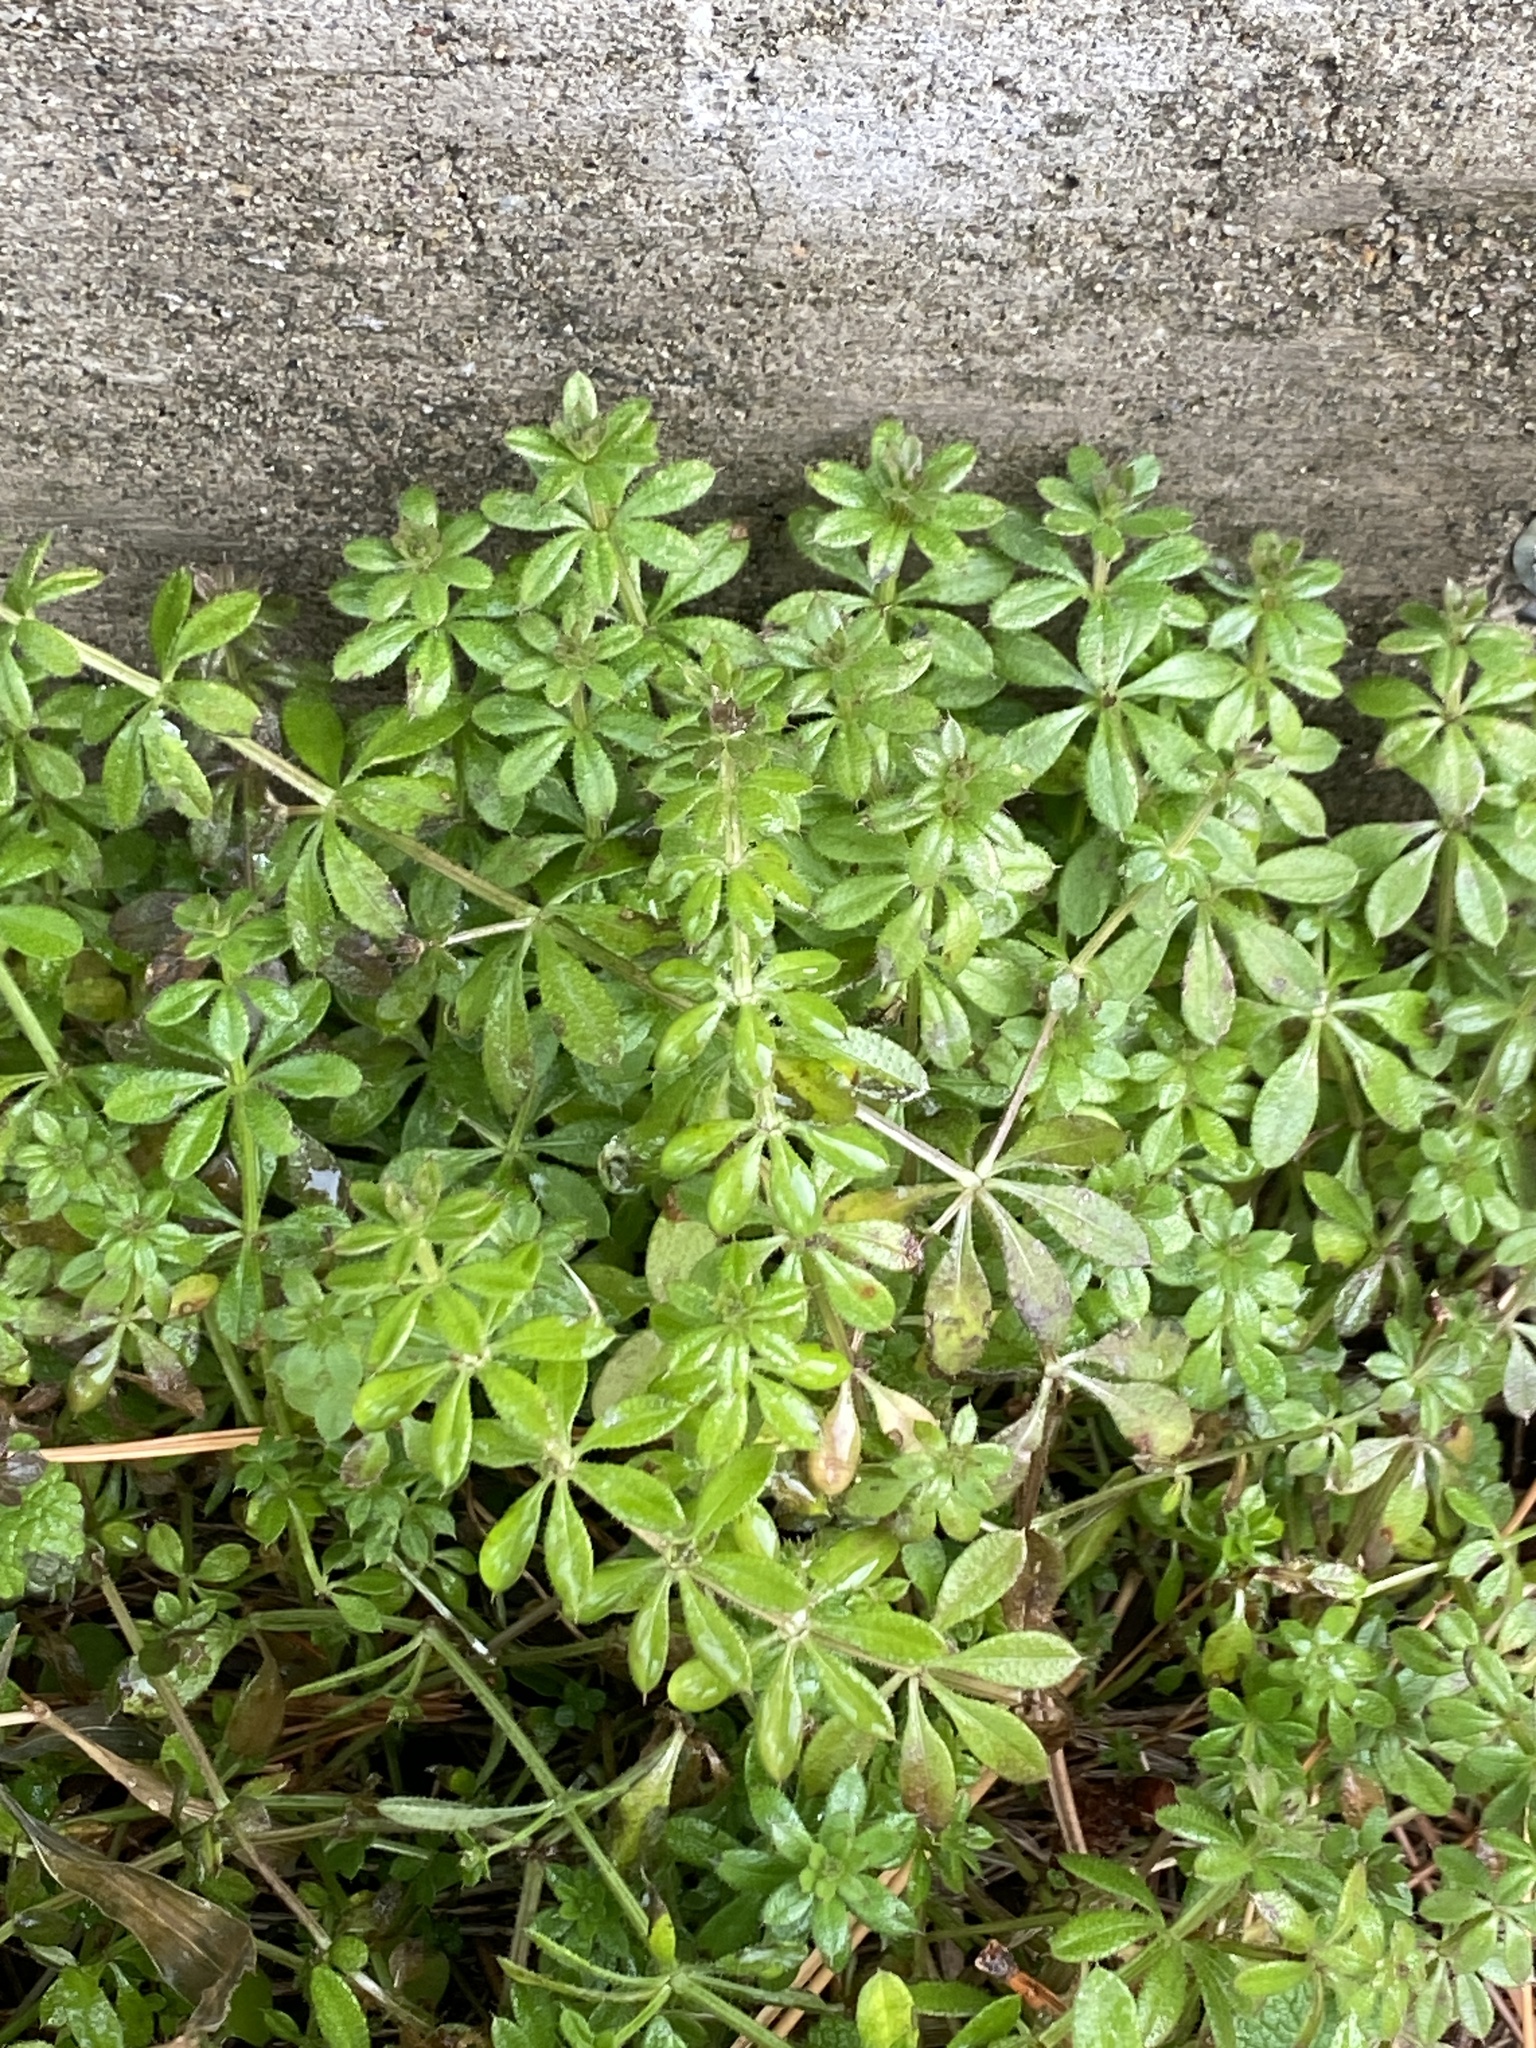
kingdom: Plantae
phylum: Tracheophyta
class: Magnoliopsida
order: Gentianales
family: Rubiaceae
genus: Galium
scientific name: Galium aparine
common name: Cleavers
